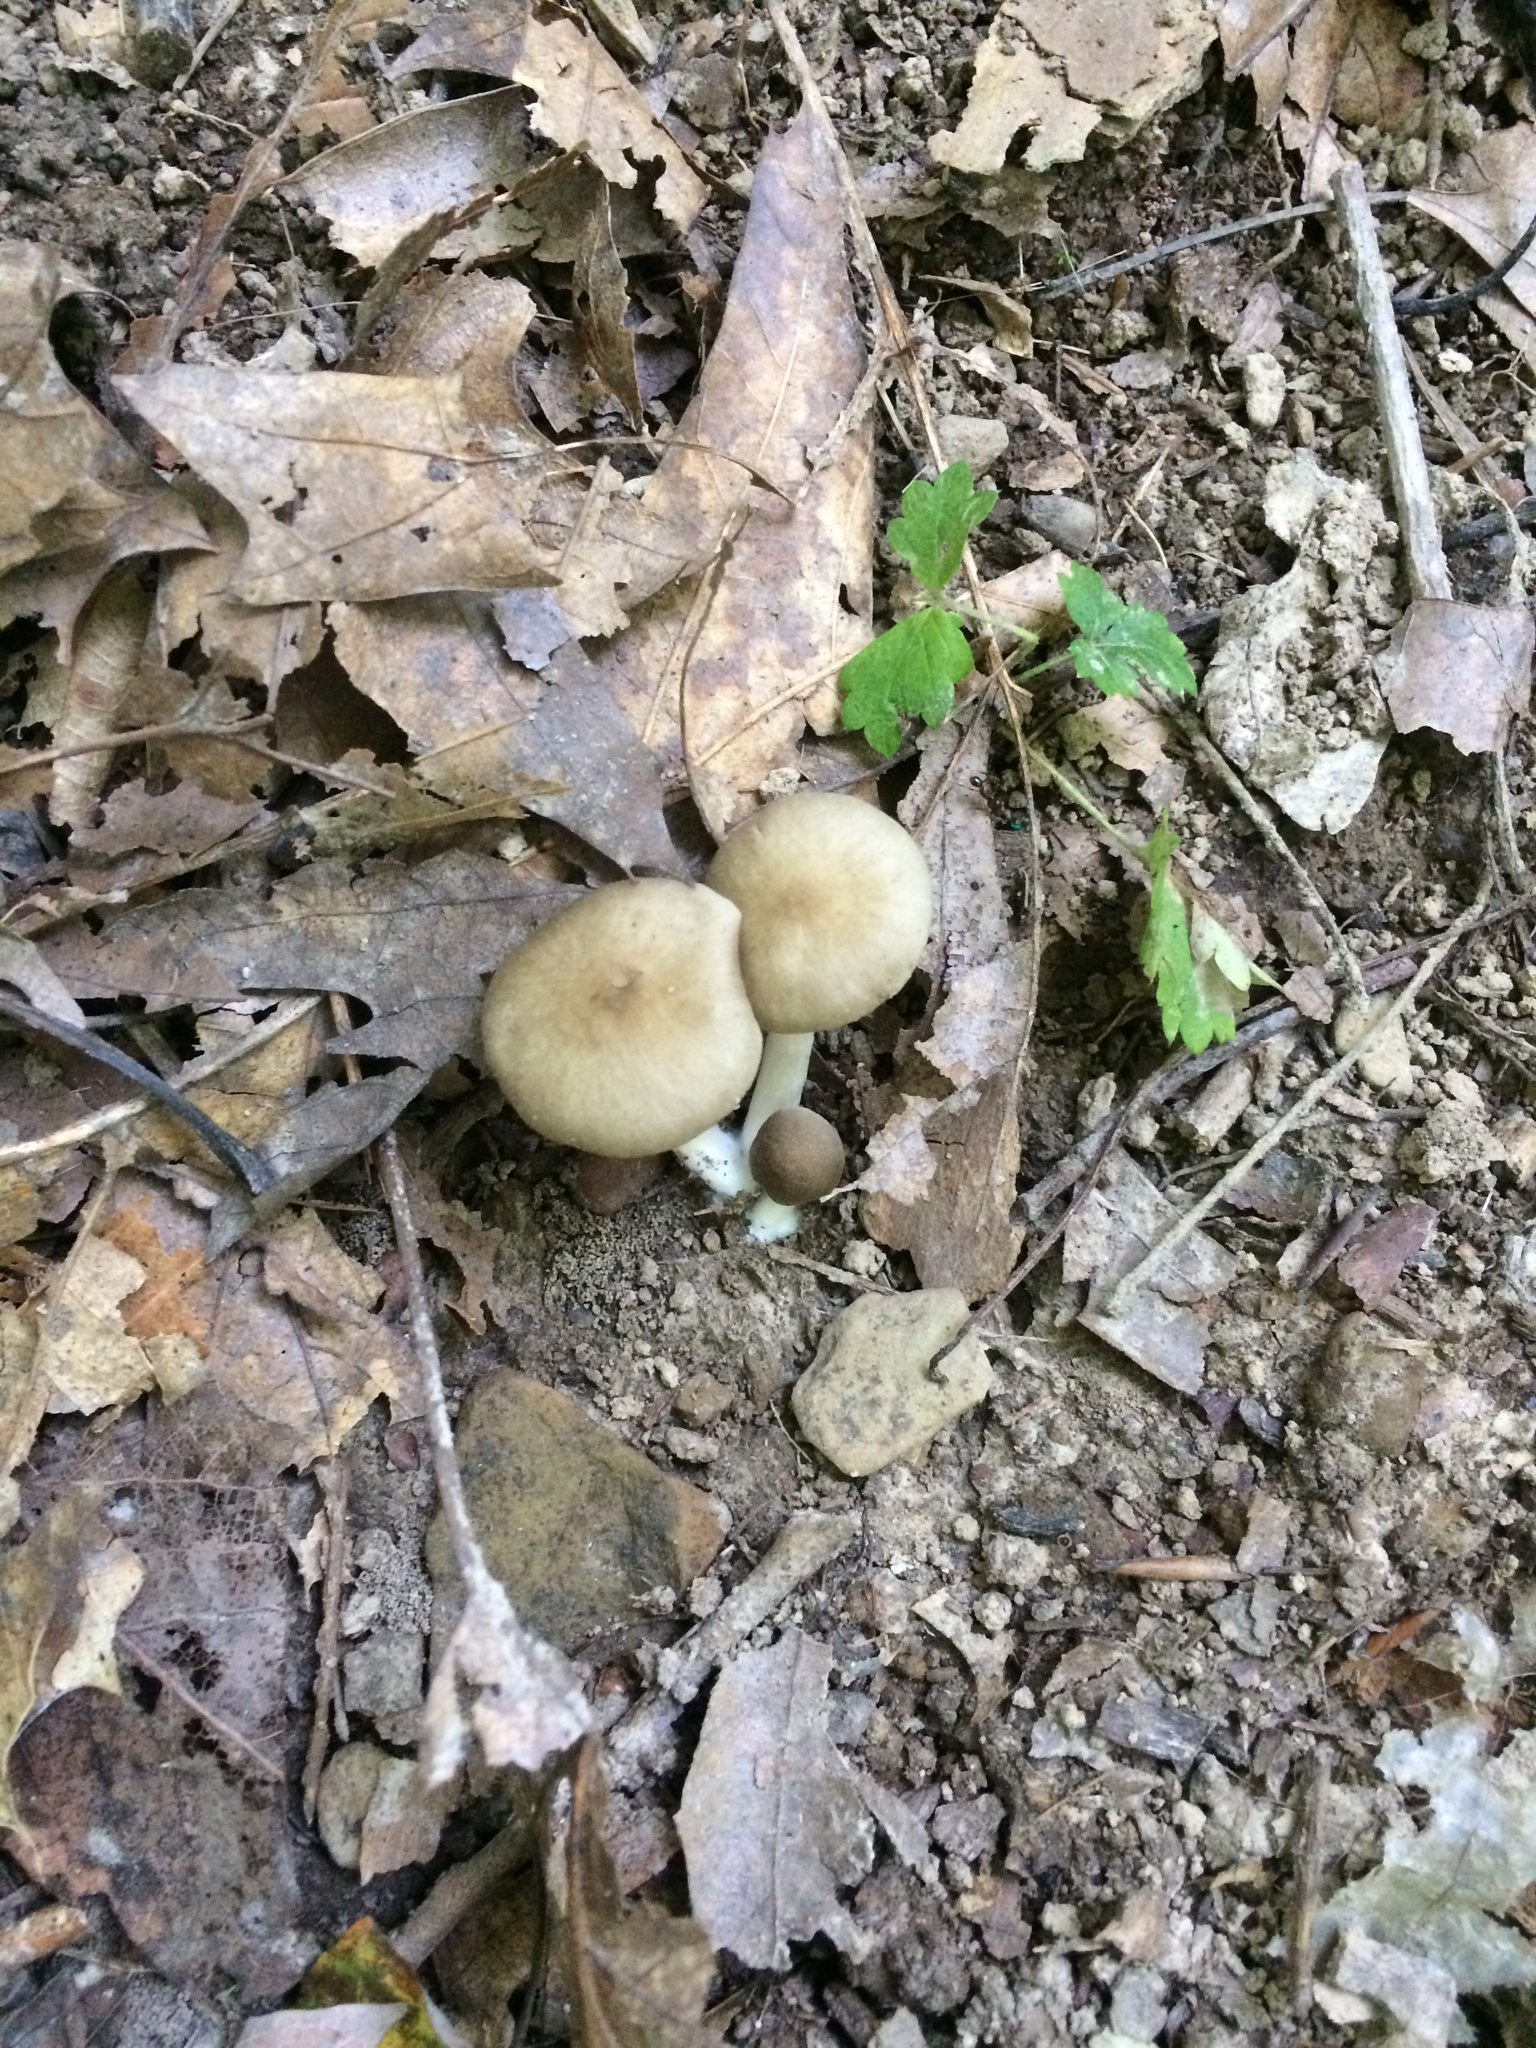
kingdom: Fungi
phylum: Basidiomycota
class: Agaricomycetes
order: Agaricales
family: Entolomataceae
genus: Entoloma
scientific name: Entoloma carolinianum
